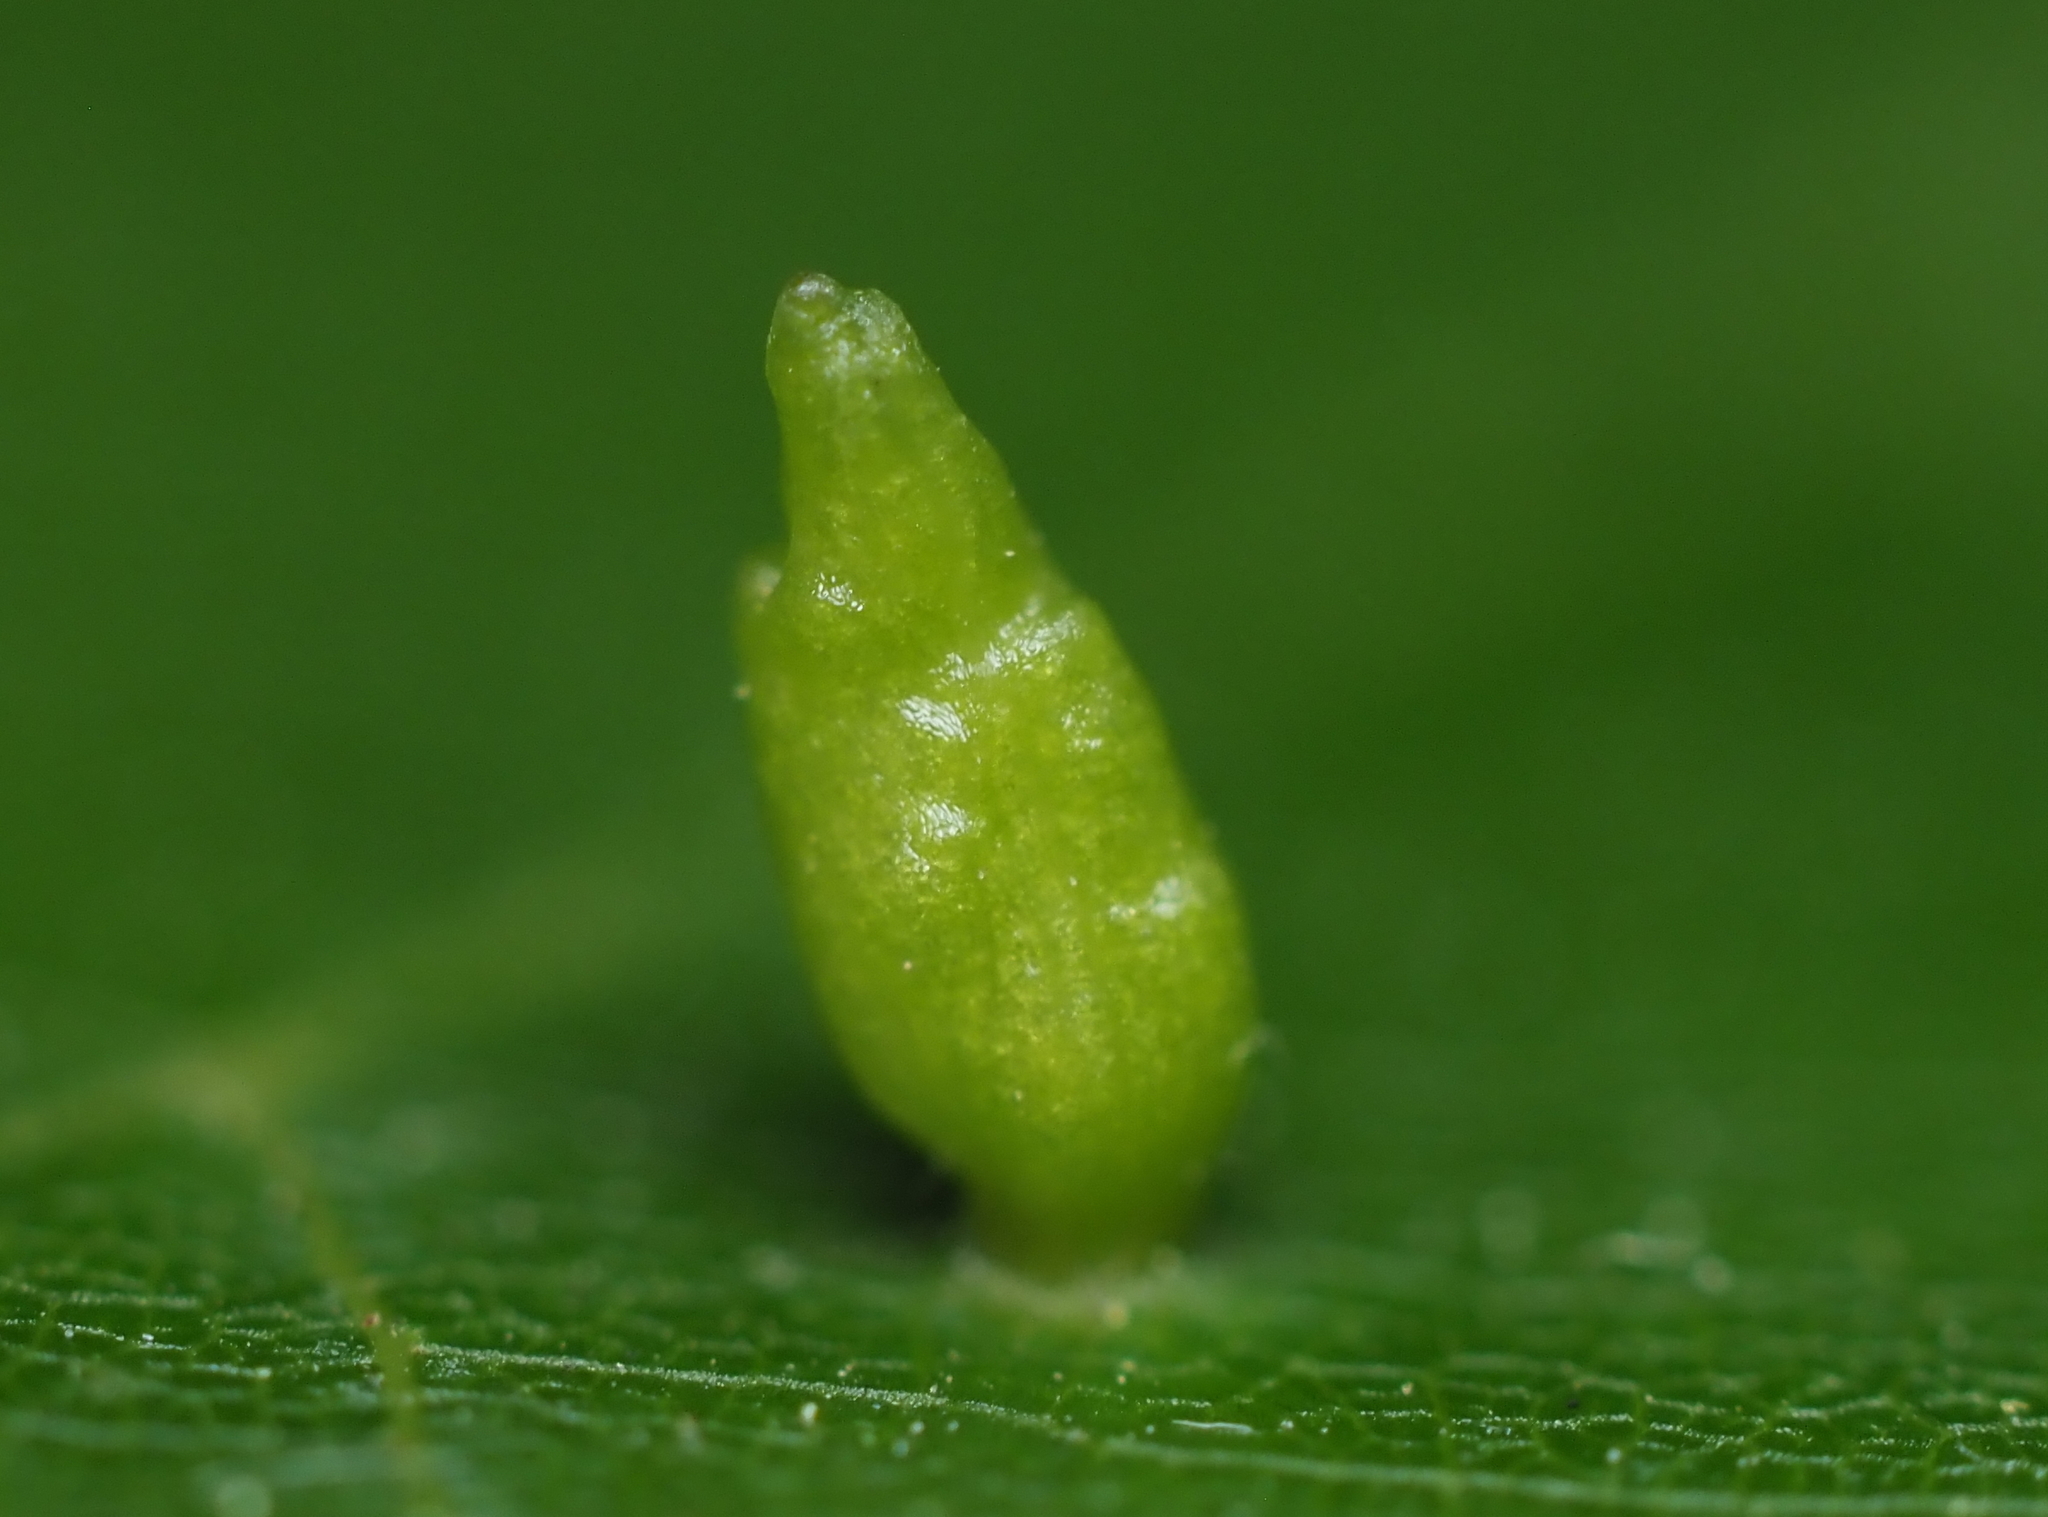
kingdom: Animalia
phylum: Arthropoda
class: Arachnida
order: Trombidiformes
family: Eriophyidae
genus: Eriophyes
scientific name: Eriophyes tiliae
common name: Red nail gall mite
